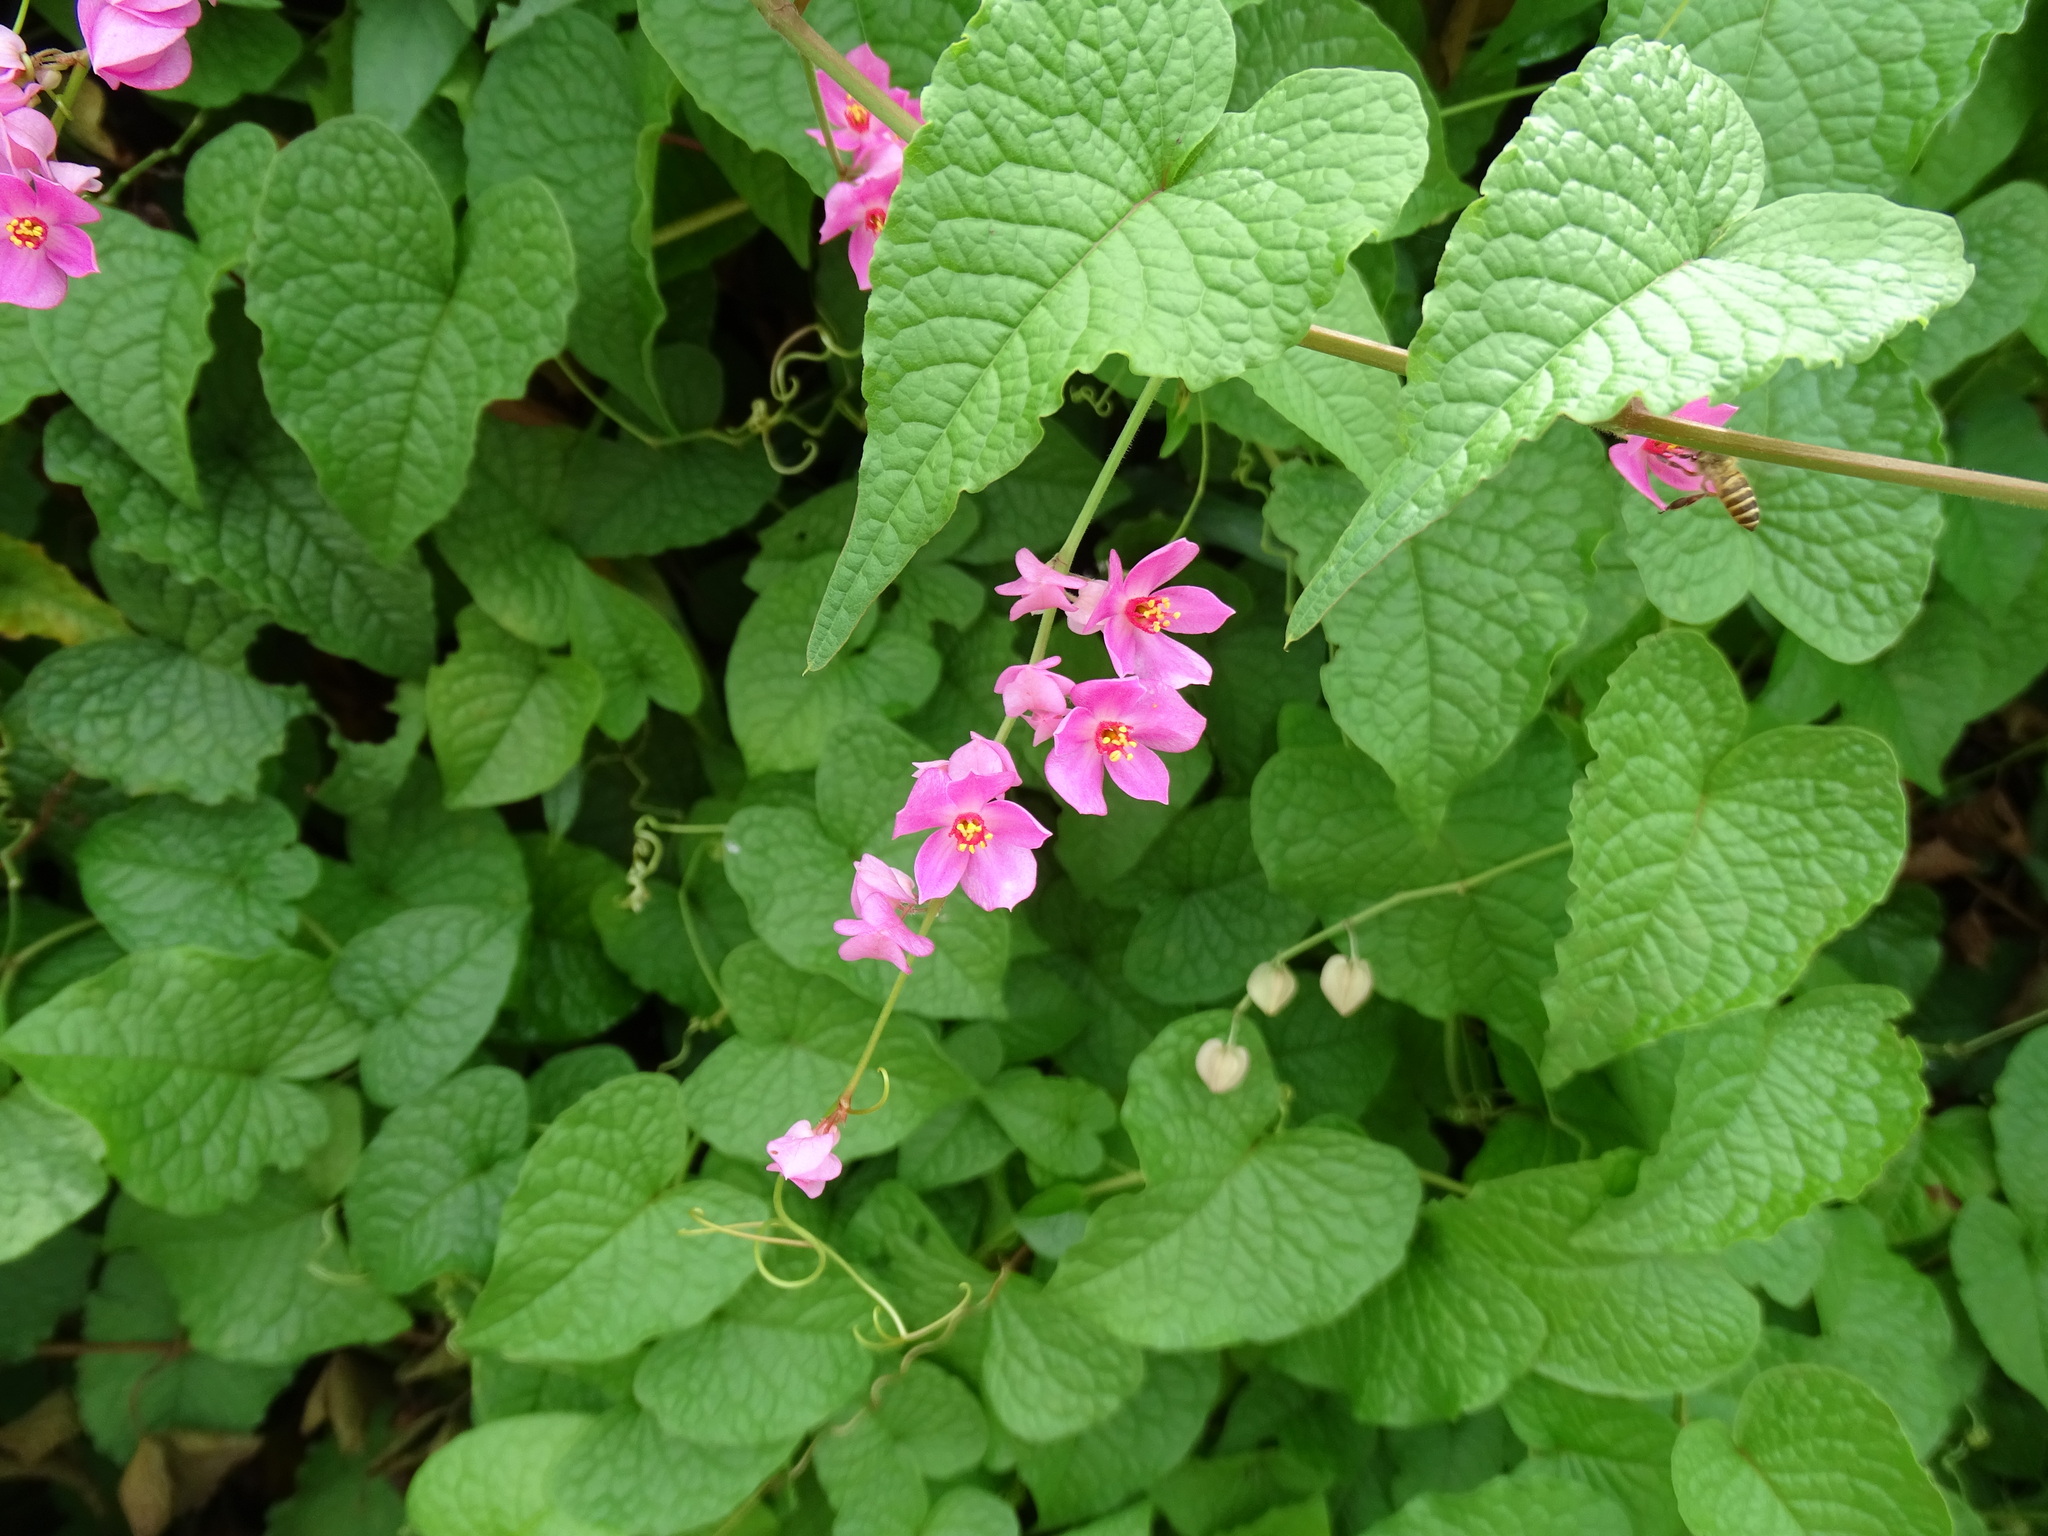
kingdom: Plantae
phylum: Tracheophyta
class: Magnoliopsida
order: Caryophyllales
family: Polygonaceae
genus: Antigonon
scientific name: Antigonon leptopus
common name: Coral vine
